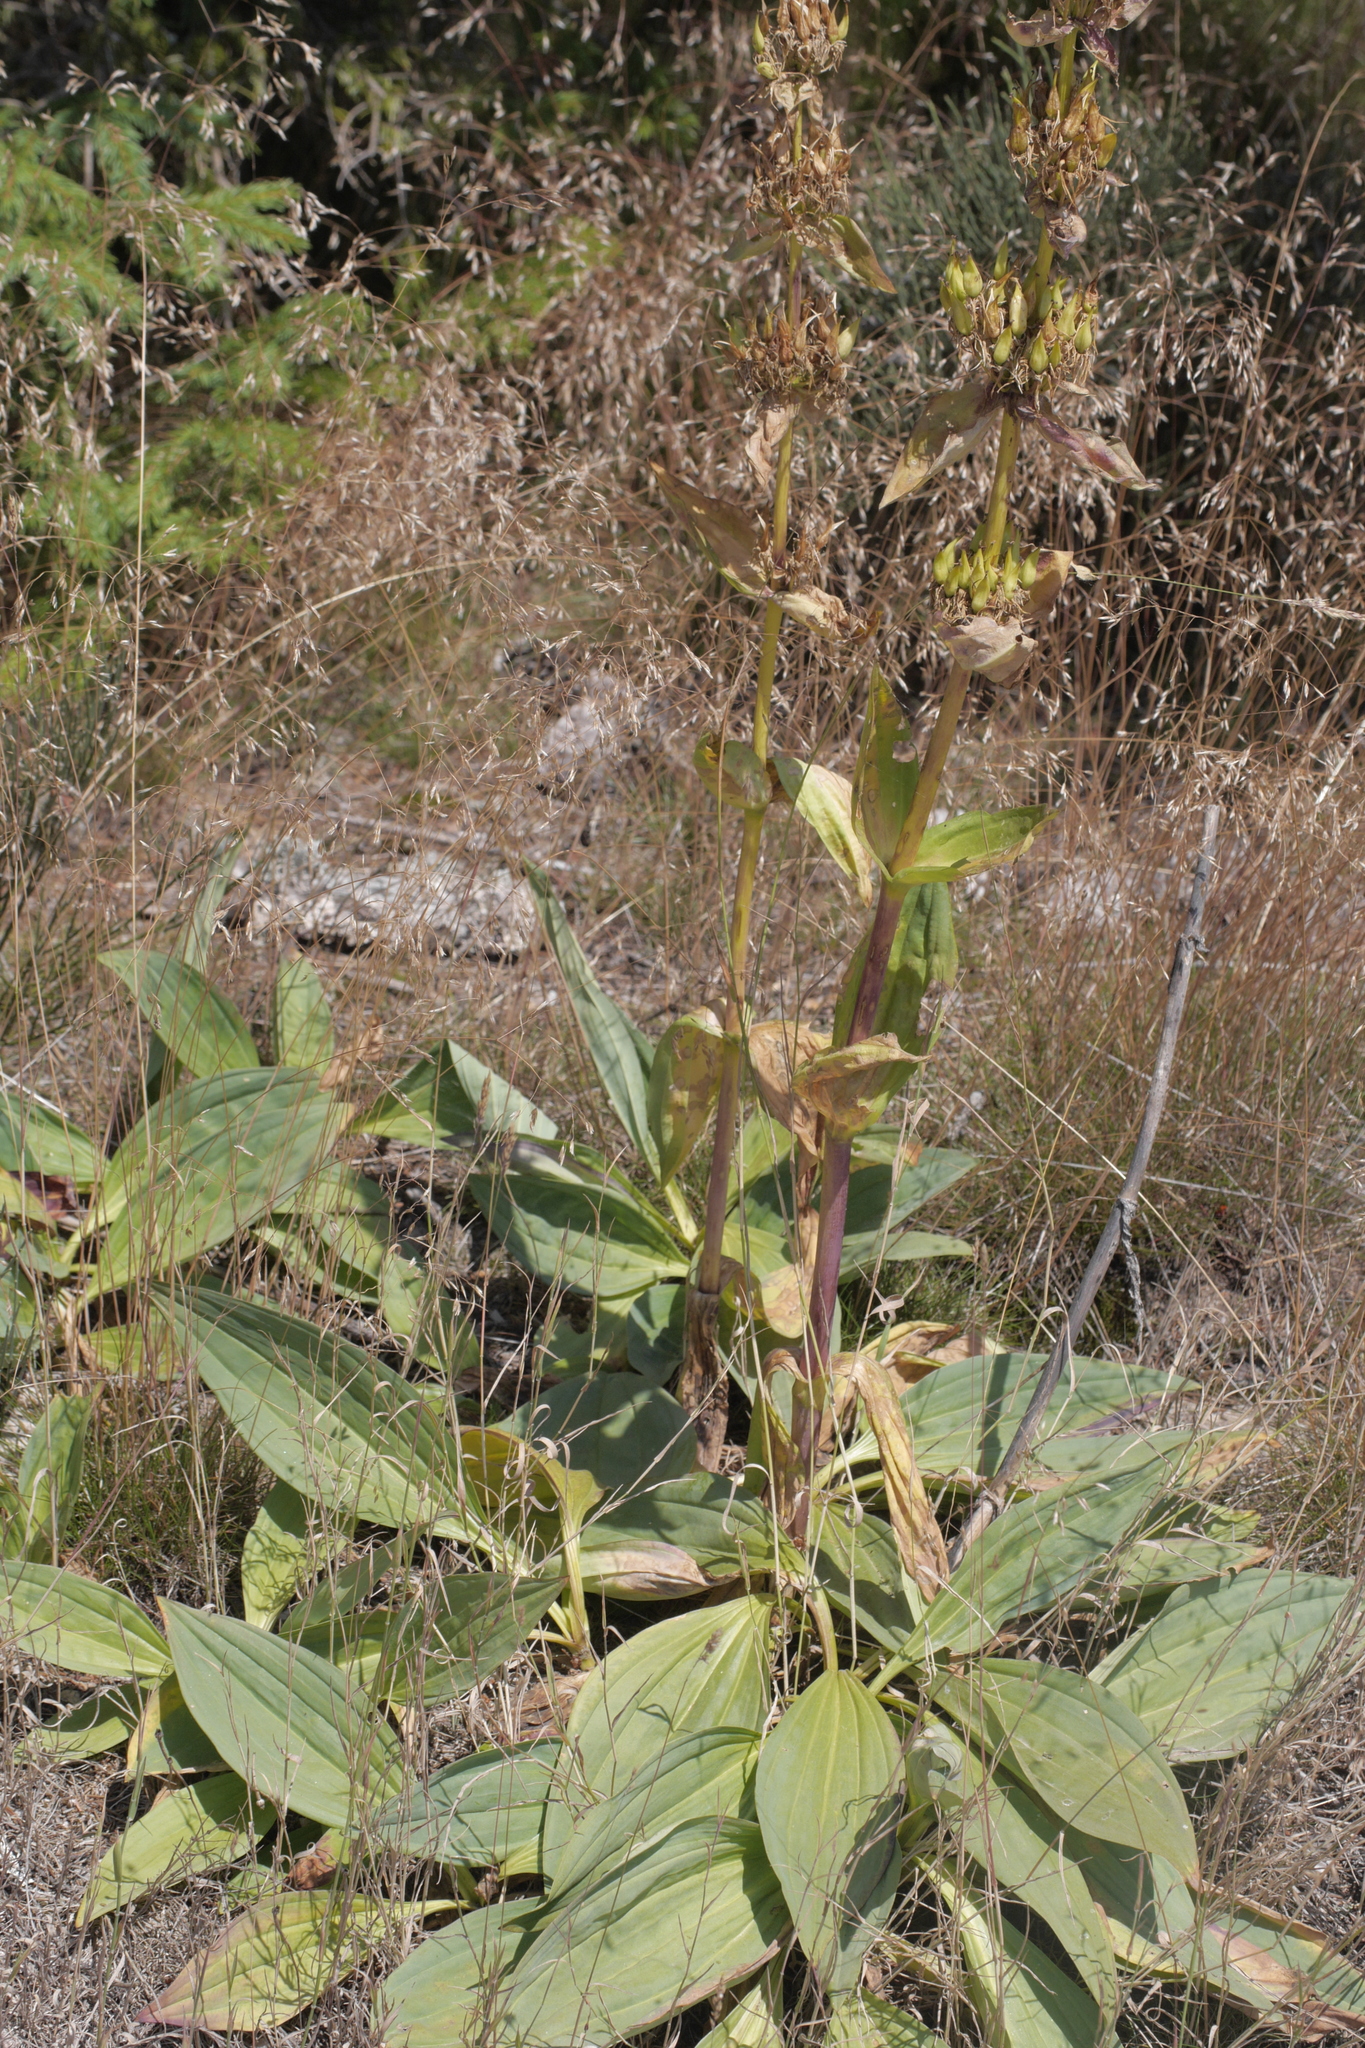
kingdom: Plantae
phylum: Tracheophyta
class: Magnoliopsida
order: Gentianales
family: Gentianaceae
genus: Gentiana
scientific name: Gentiana lutea
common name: Great yellow gentian
